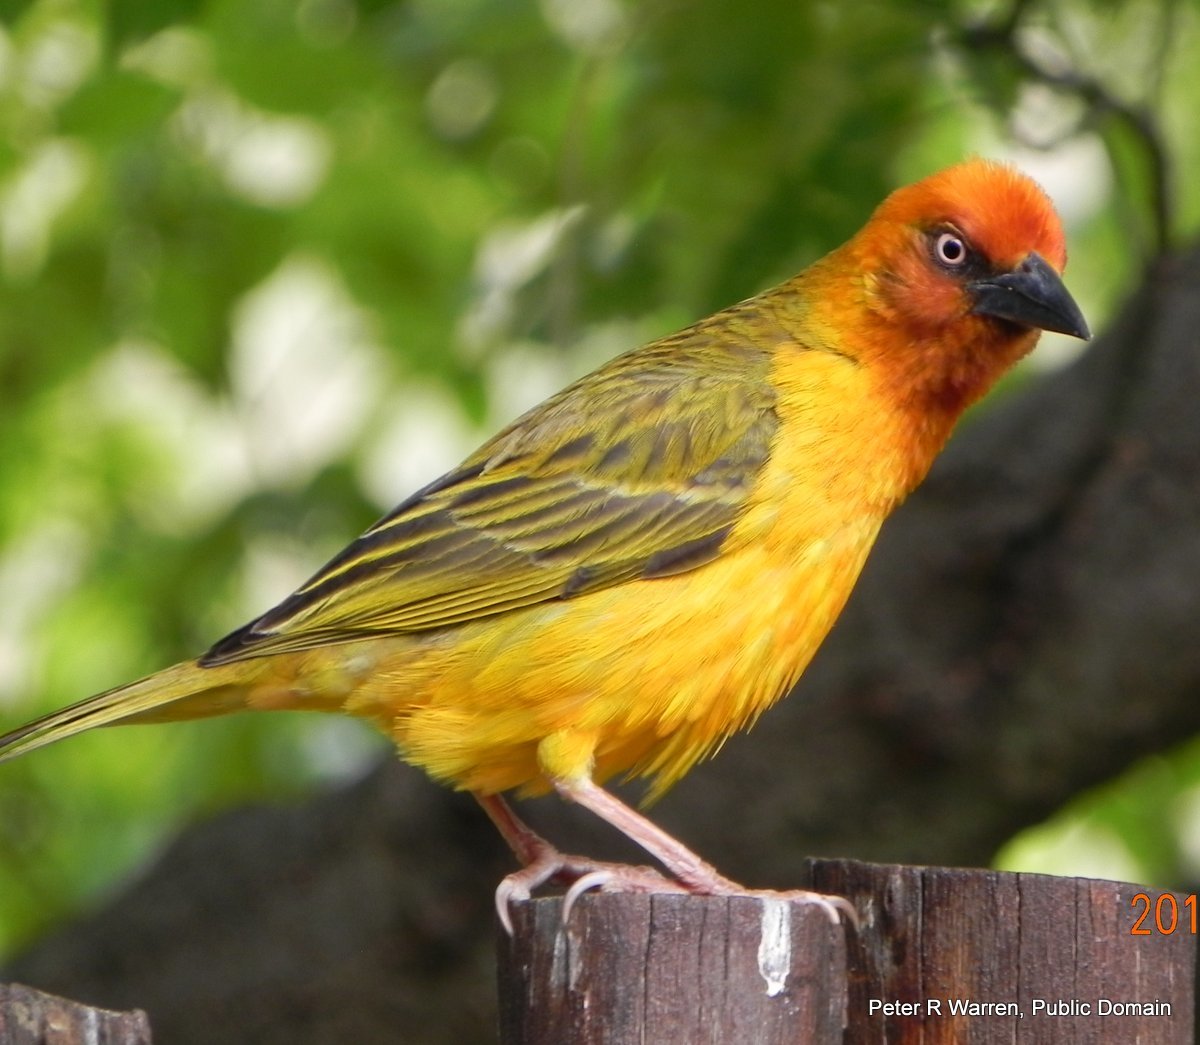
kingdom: Animalia
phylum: Chordata
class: Aves
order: Passeriformes
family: Ploceidae
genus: Ploceus
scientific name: Ploceus capensis
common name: Cape weaver
